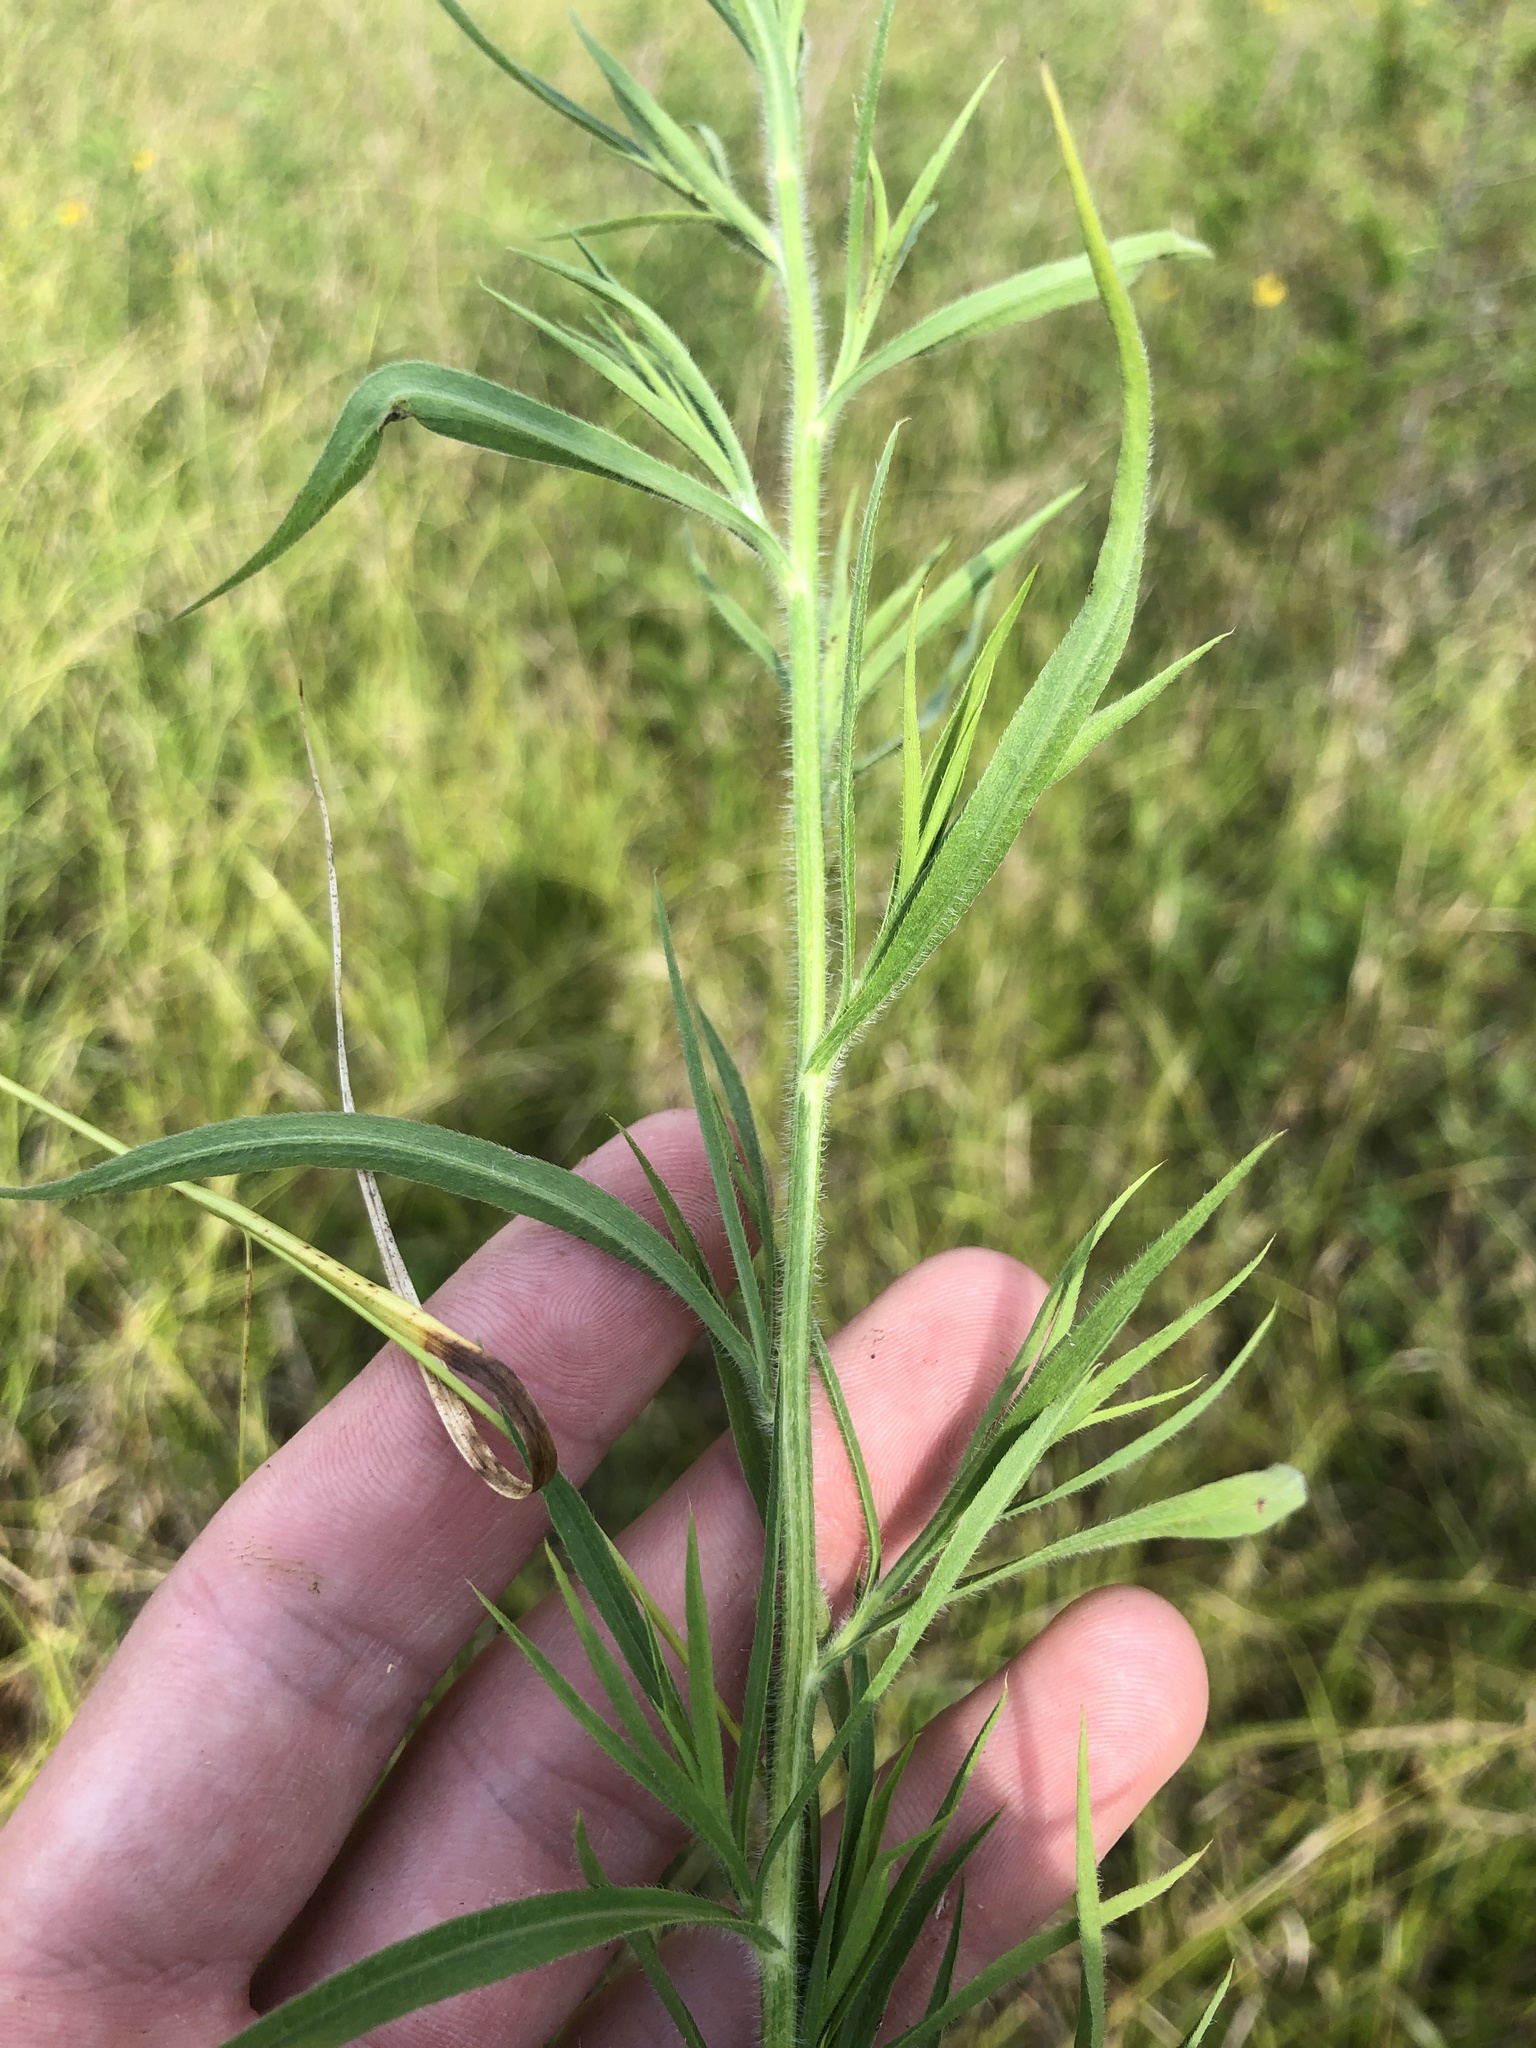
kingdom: Plantae
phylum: Tracheophyta
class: Magnoliopsida
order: Asterales
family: Asteraceae
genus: Symphyotrichum
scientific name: Symphyotrichum pilosum
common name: Awl aster
